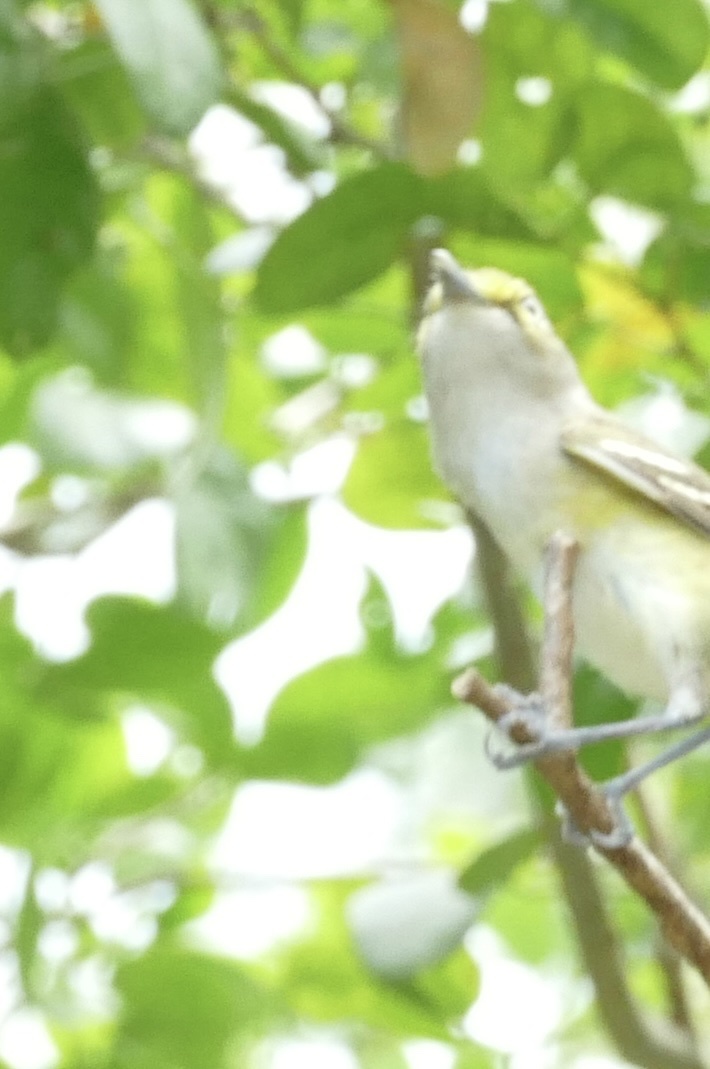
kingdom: Animalia
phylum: Chordata
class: Aves
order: Passeriformes
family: Vireonidae
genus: Vireo
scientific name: Vireo griseus
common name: White-eyed vireo
